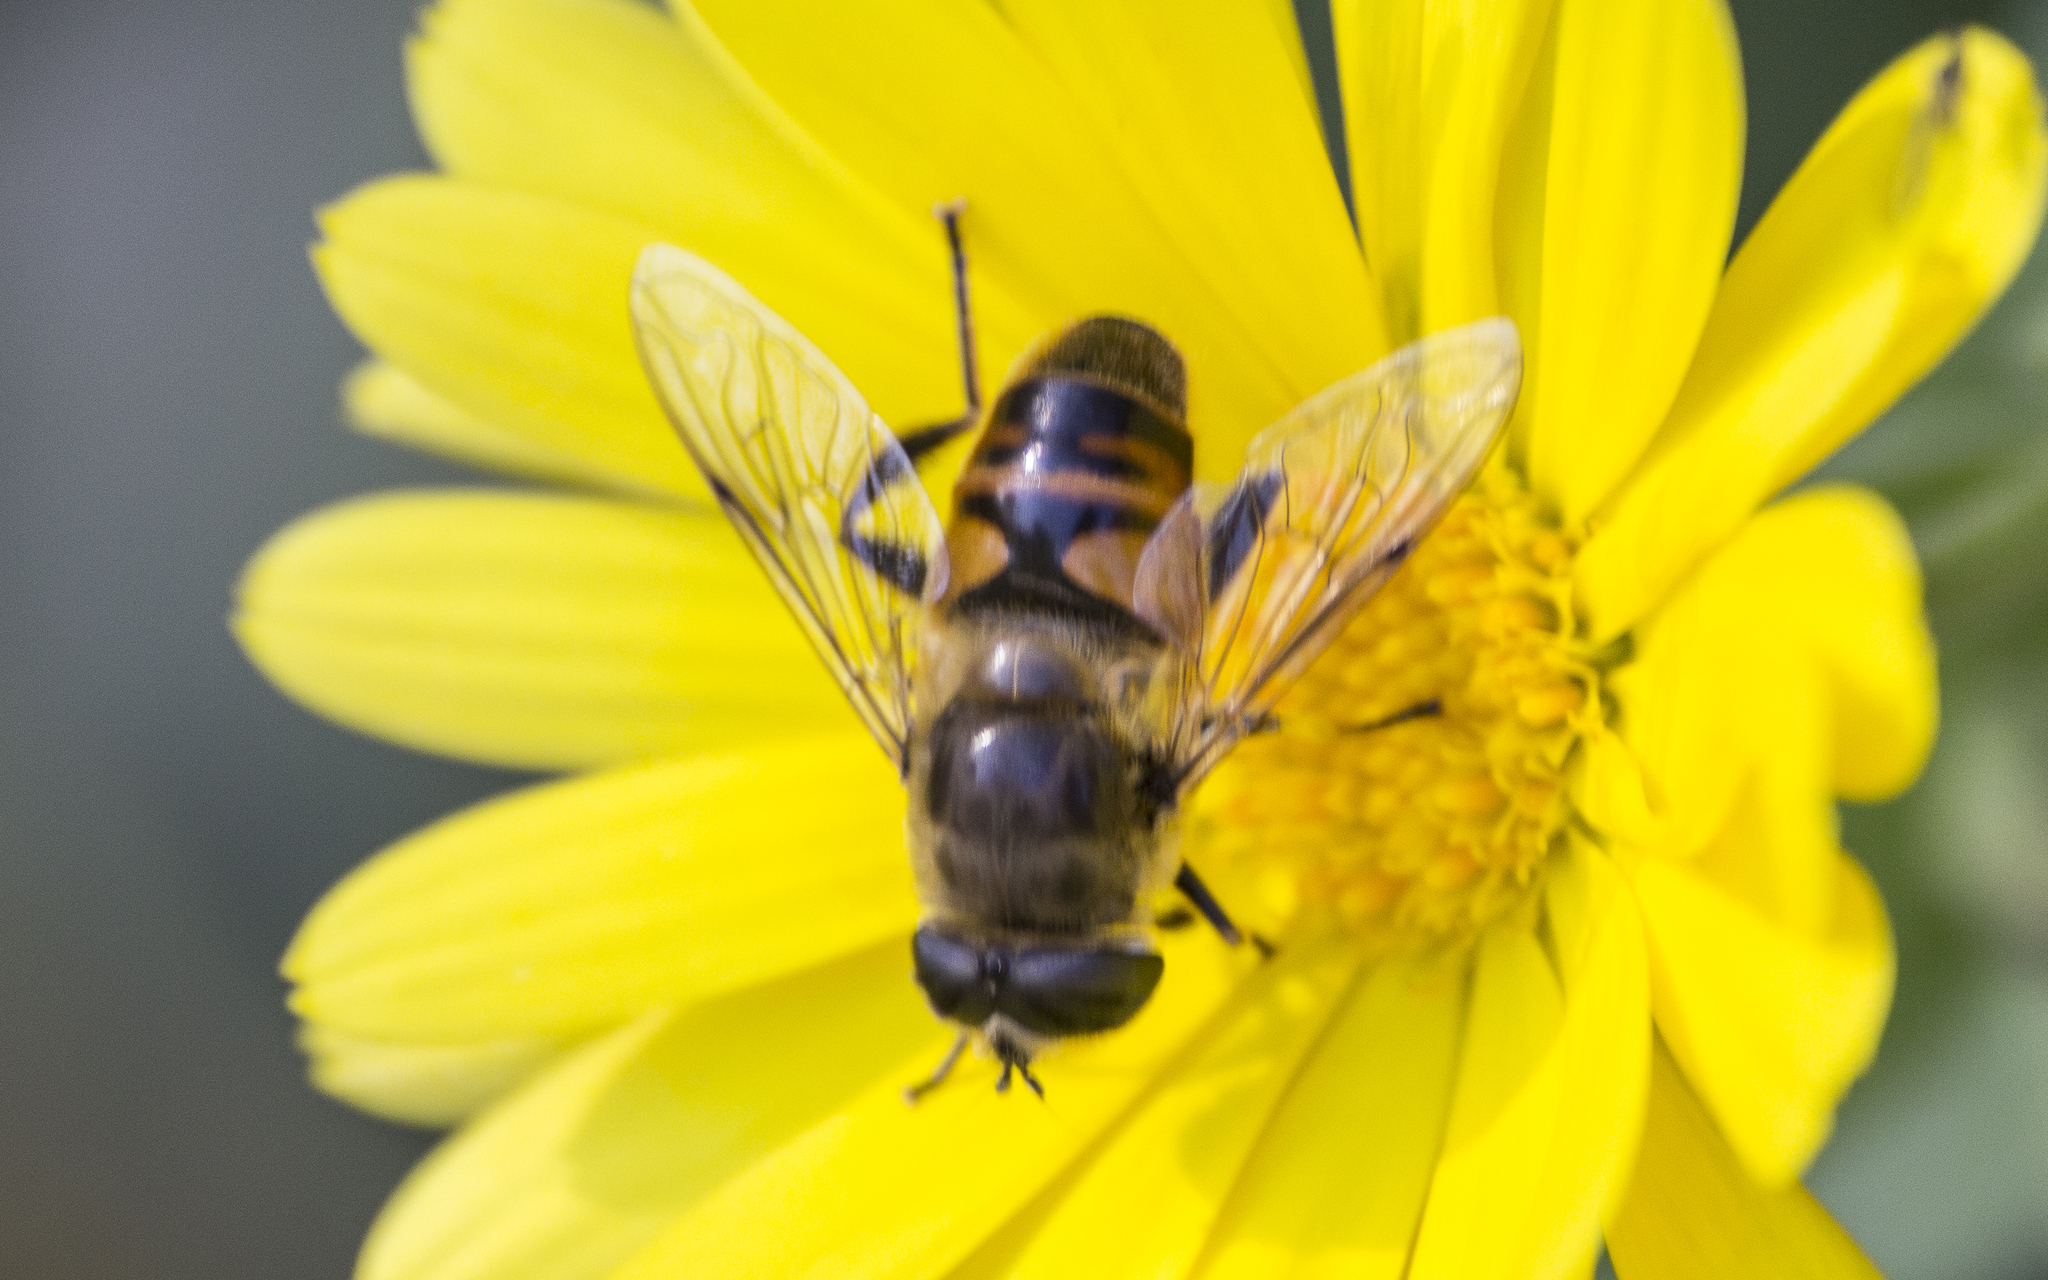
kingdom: Animalia
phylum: Arthropoda
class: Insecta
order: Diptera
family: Syrphidae
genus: Eristalis
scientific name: Eristalis tenax
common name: Drone fly
